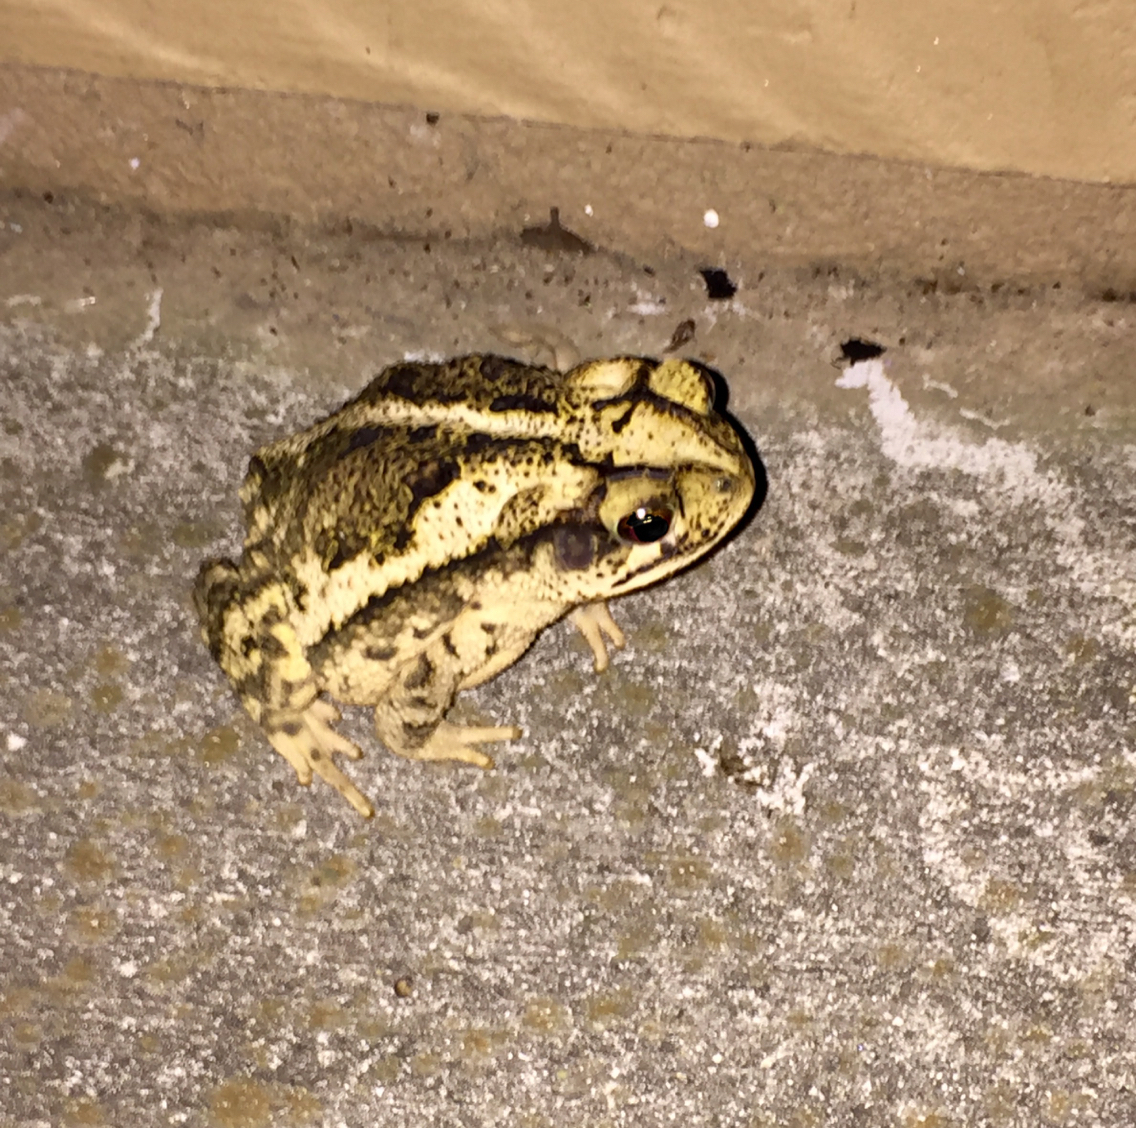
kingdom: Animalia
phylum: Chordata
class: Amphibia
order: Anura
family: Bufonidae
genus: Incilius
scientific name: Incilius nebulifer
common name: Gulf coast toad
